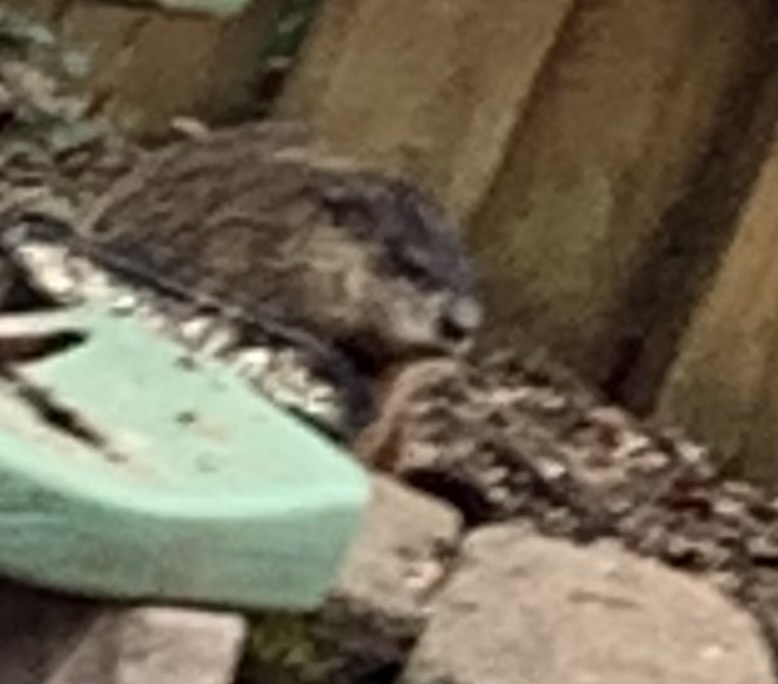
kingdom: Animalia
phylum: Chordata
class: Mammalia
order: Rodentia
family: Sciuridae
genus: Marmota
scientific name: Marmota monax
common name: Groundhog
